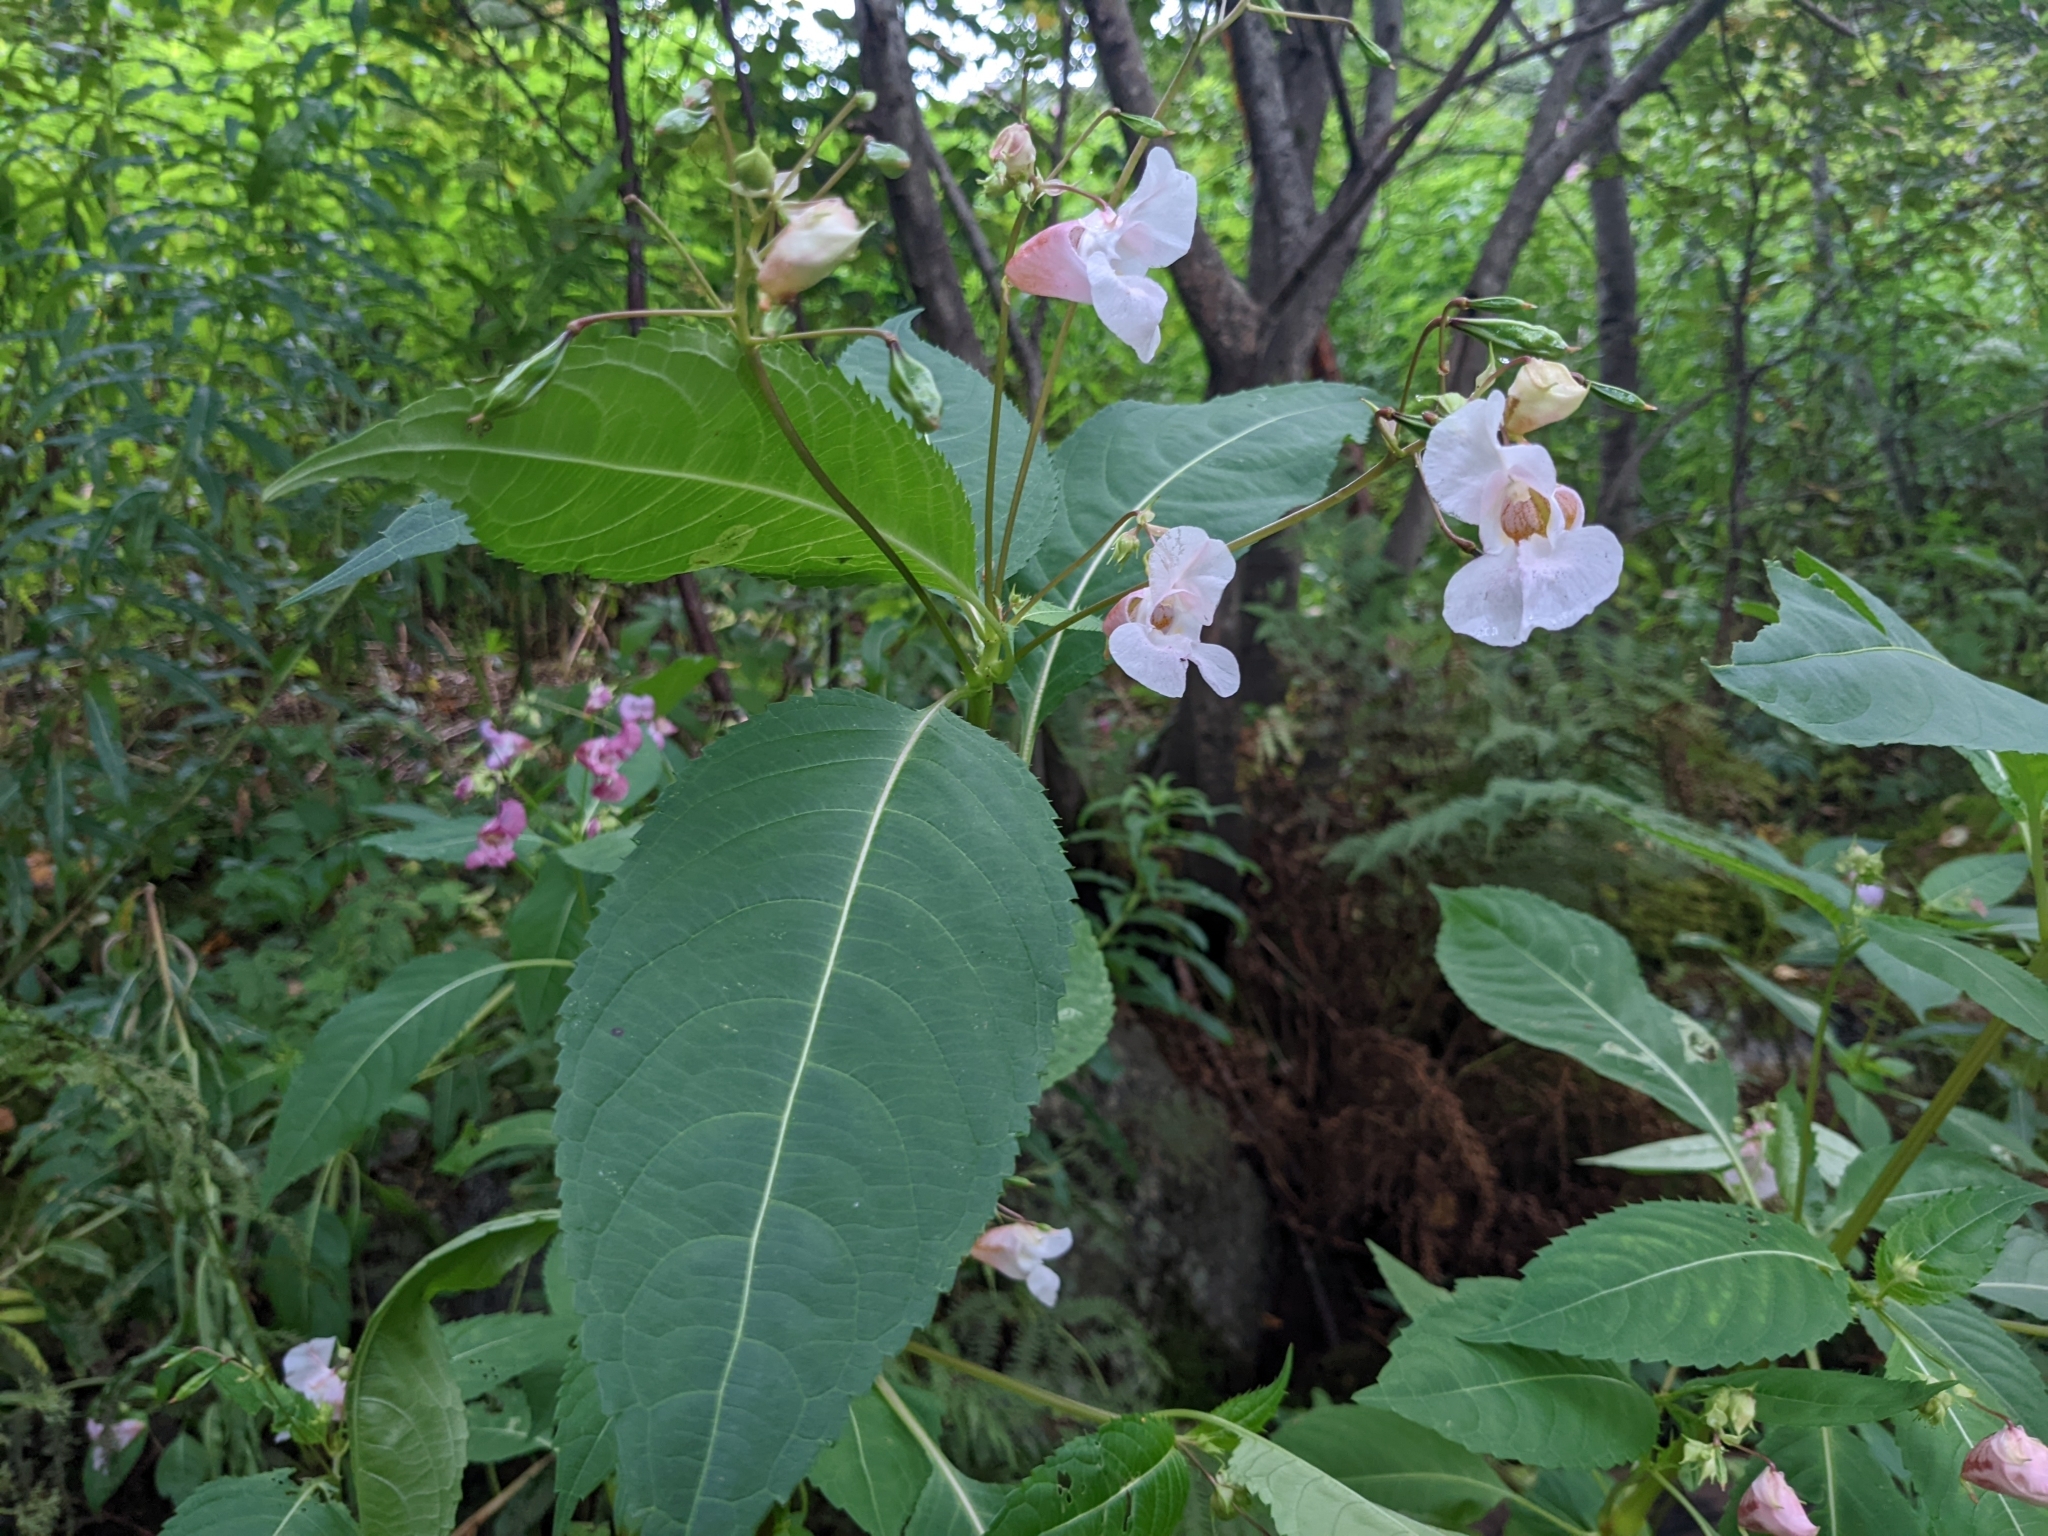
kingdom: Plantae
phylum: Tracheophyta
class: Magnoliopsida
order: Ericales
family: Balsaminaceae
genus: Impatiens
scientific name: Impatiens glandulifera
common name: Himalayan balsam
